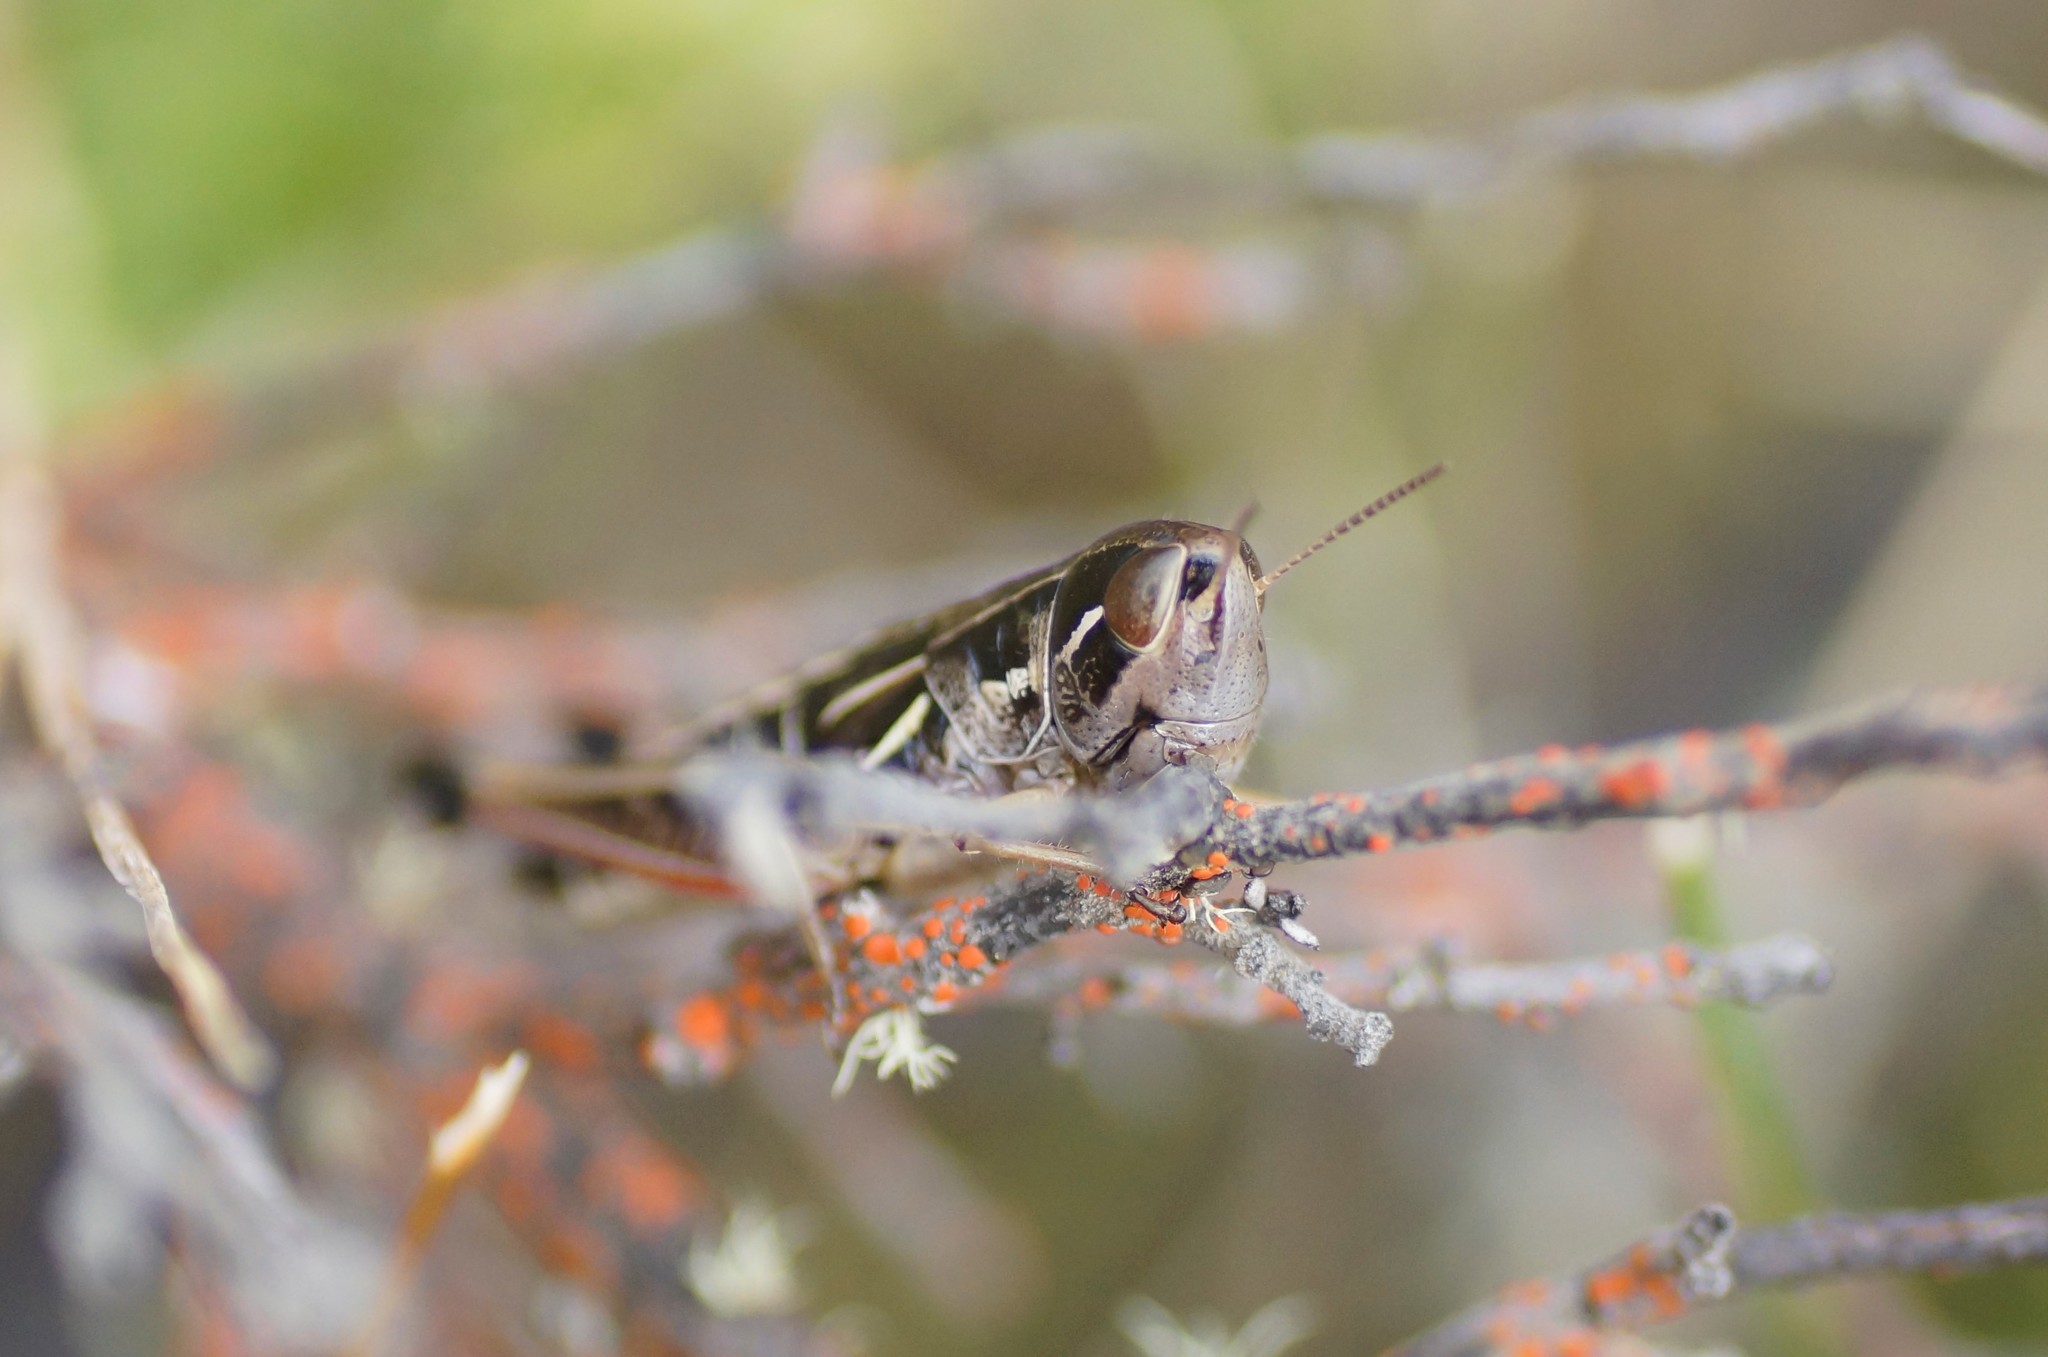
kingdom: Animalia
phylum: Arthropoda
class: Insecta
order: Orthoptera
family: Acrididae
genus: Kosciuscola
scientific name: Kosciuscola cuneatus
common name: Brown kosciuscola
